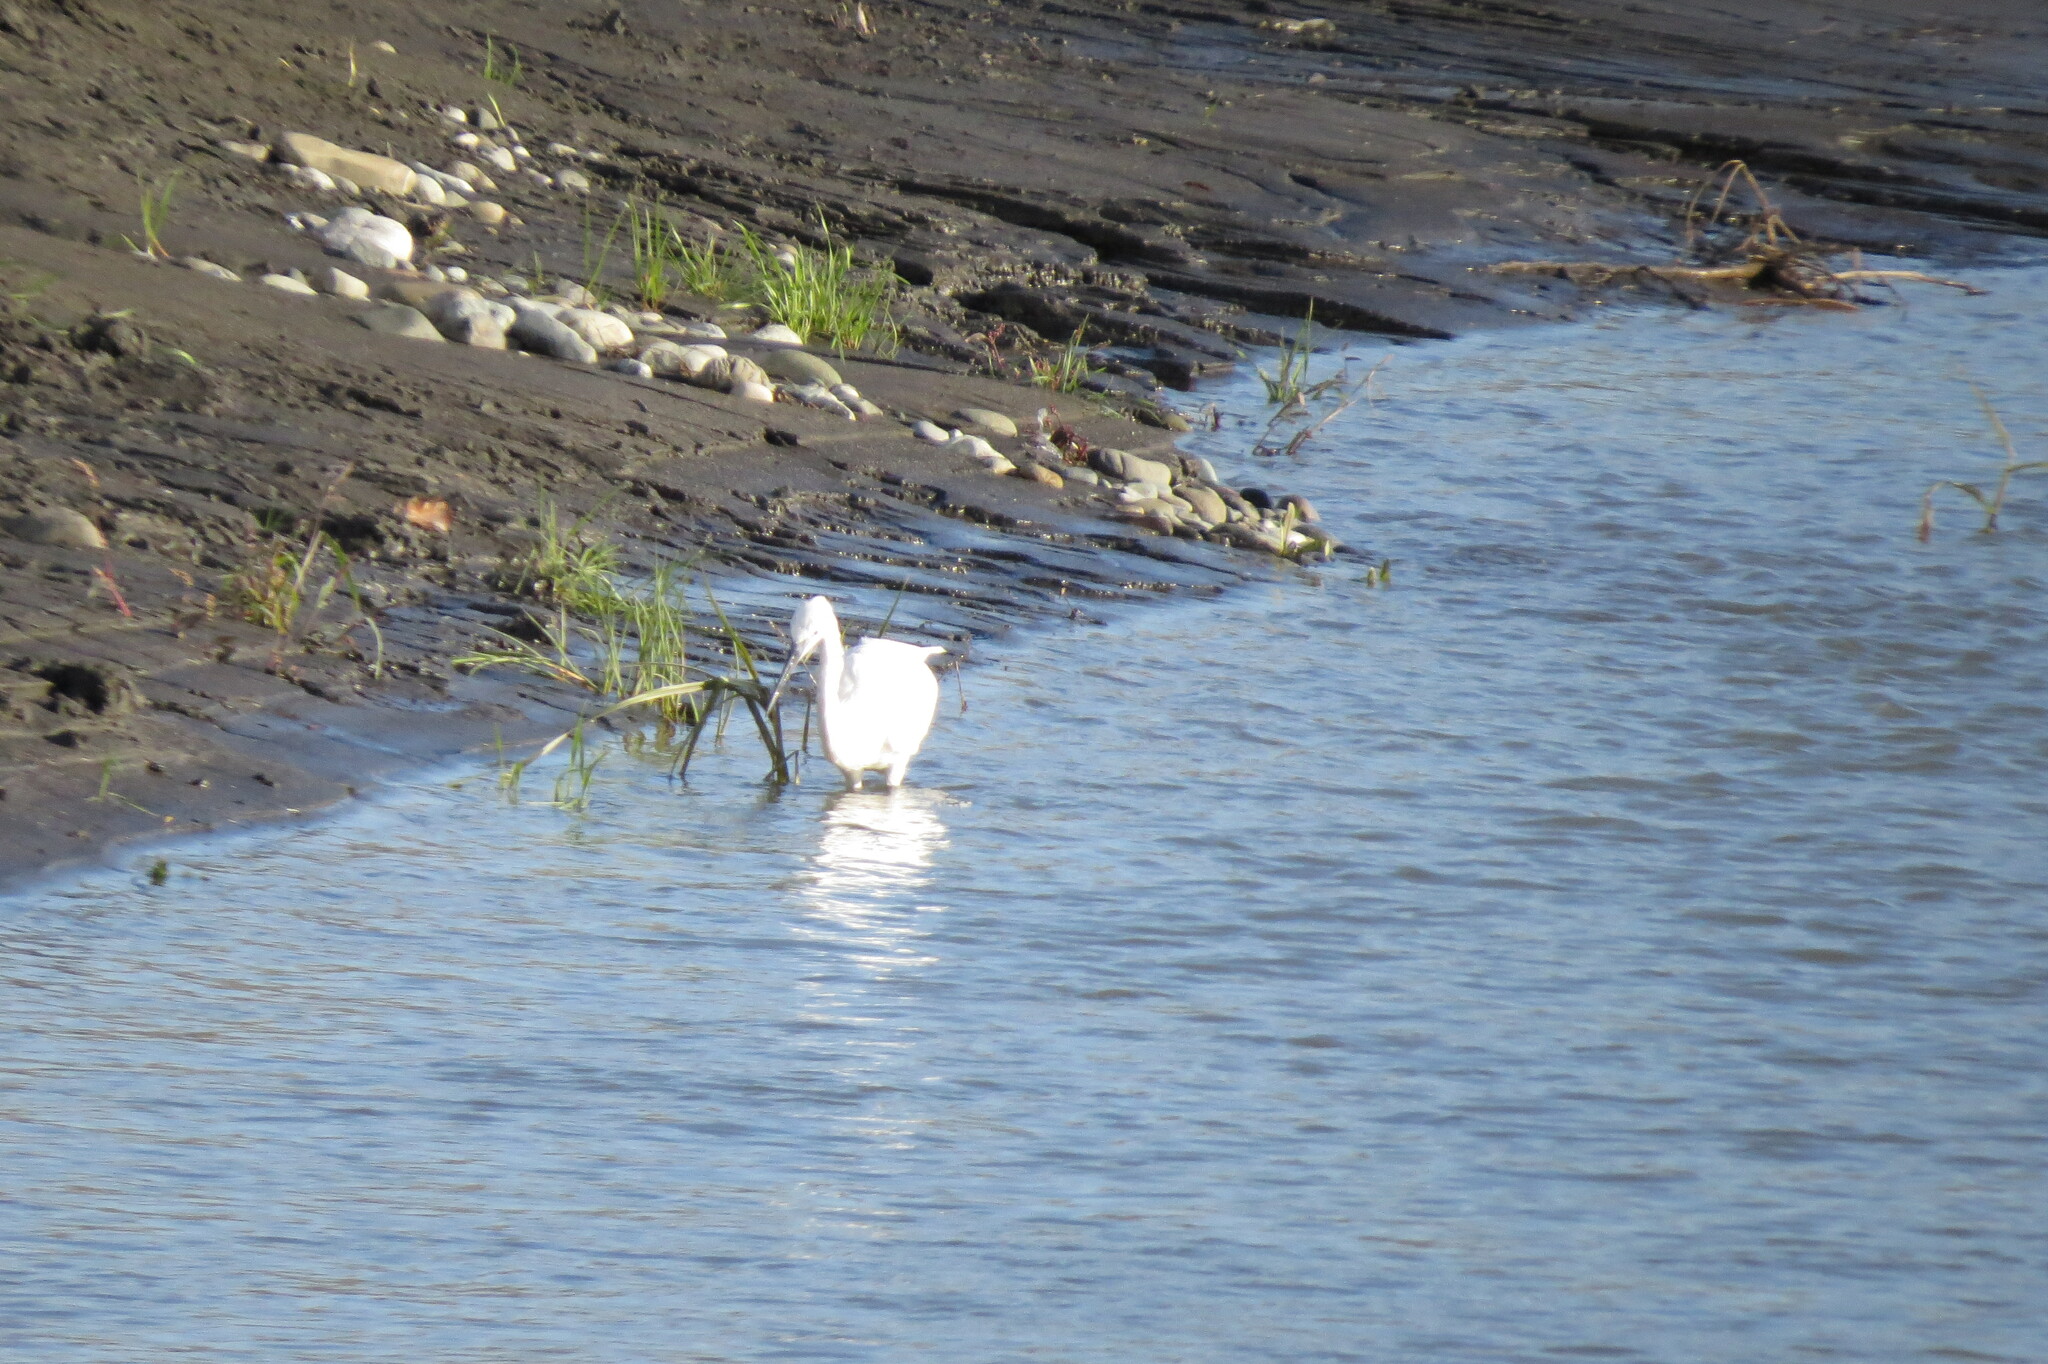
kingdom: Animalia
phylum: Chordata
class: Aves
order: Pelecaniformes
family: Ardeidae
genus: Egretta
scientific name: Egretta garzetta
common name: Little egret
